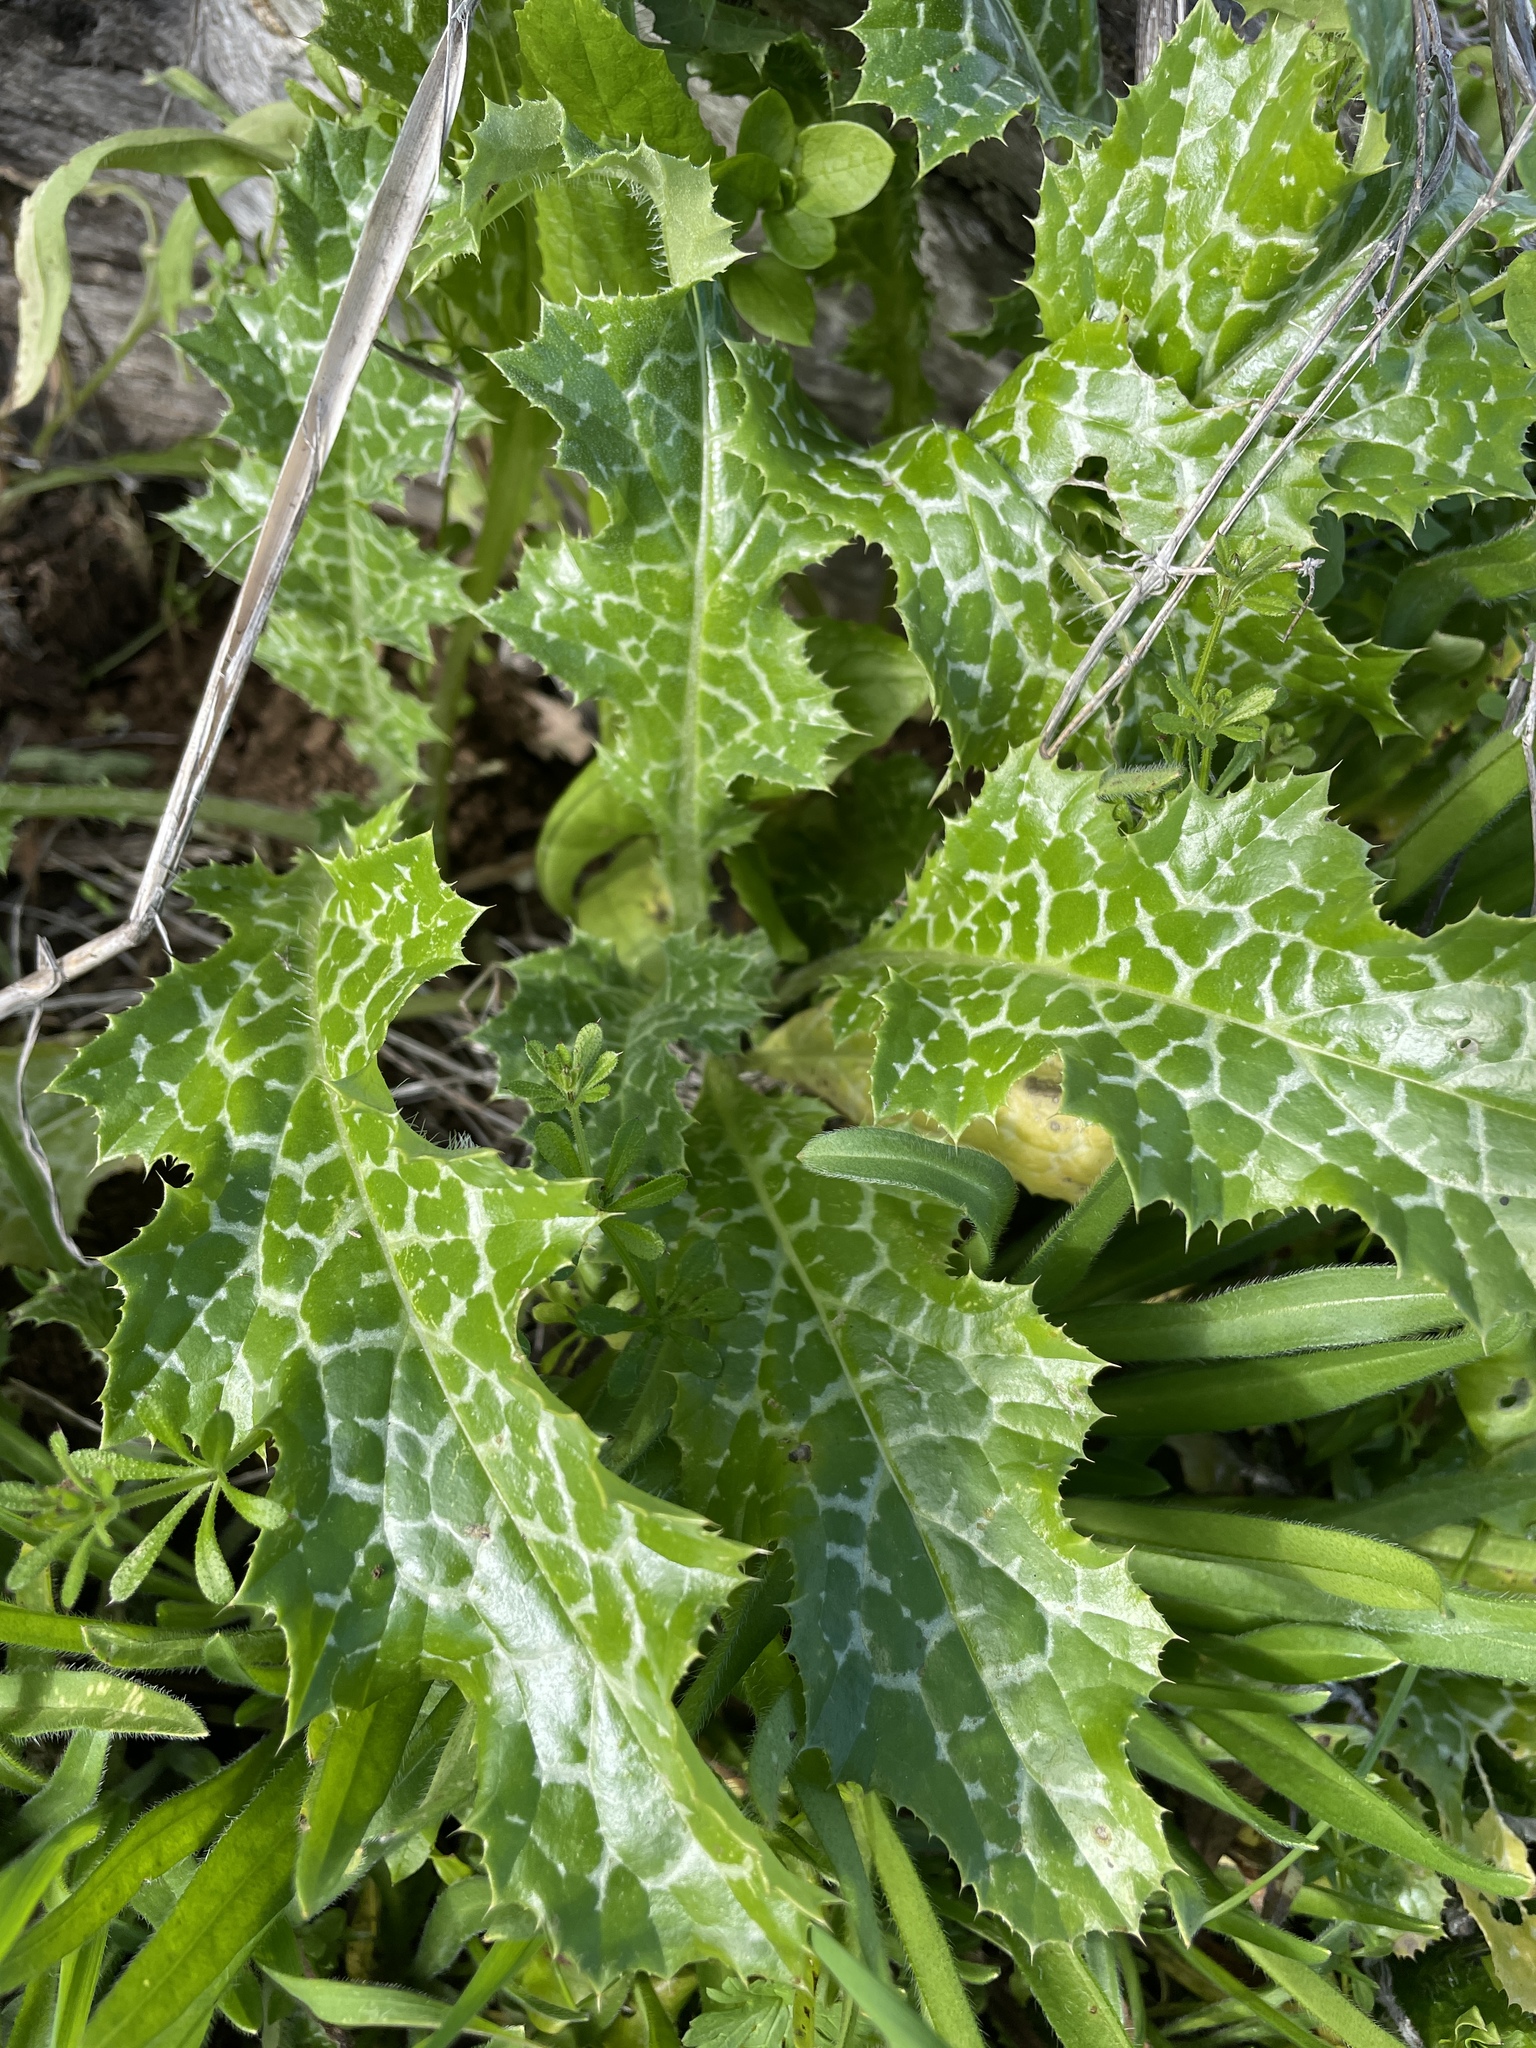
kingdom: Plantae
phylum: Tracheophyta
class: Magnoliopsida
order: Asterales
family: Asteraceae
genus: Silybum
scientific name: Silybum marianum
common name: Milk thistle
